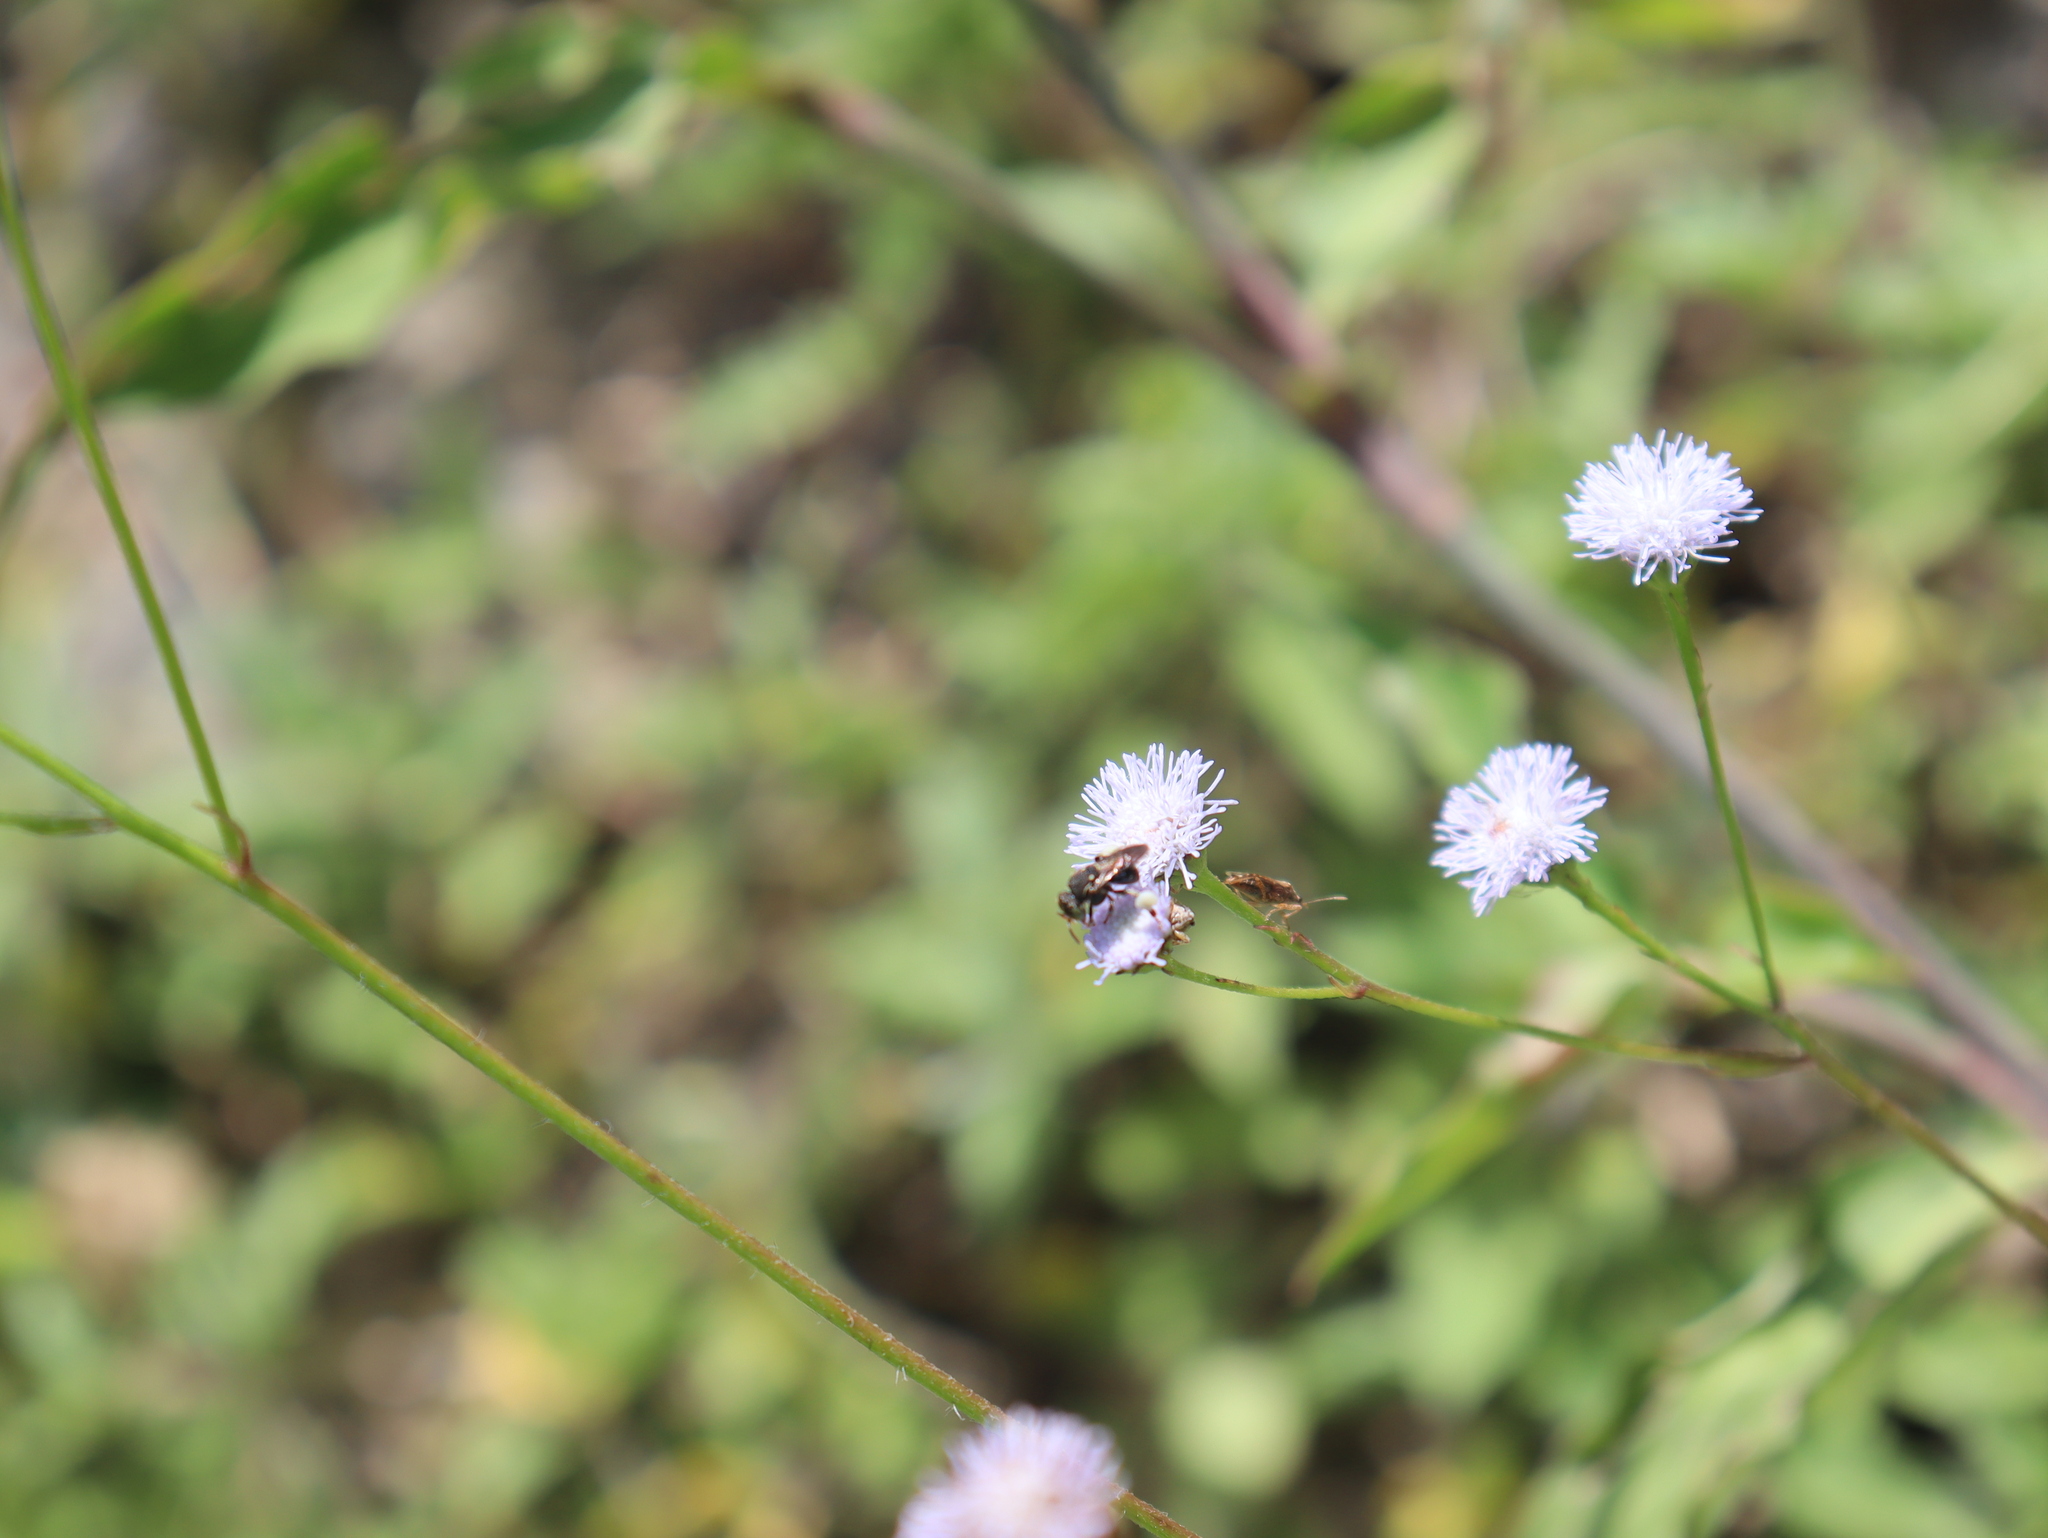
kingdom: Animalia
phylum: Arthropoda
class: Insecta
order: Hymenoptera
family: Apidae
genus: Nannotrigona
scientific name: Nannotrigona perilampoides
